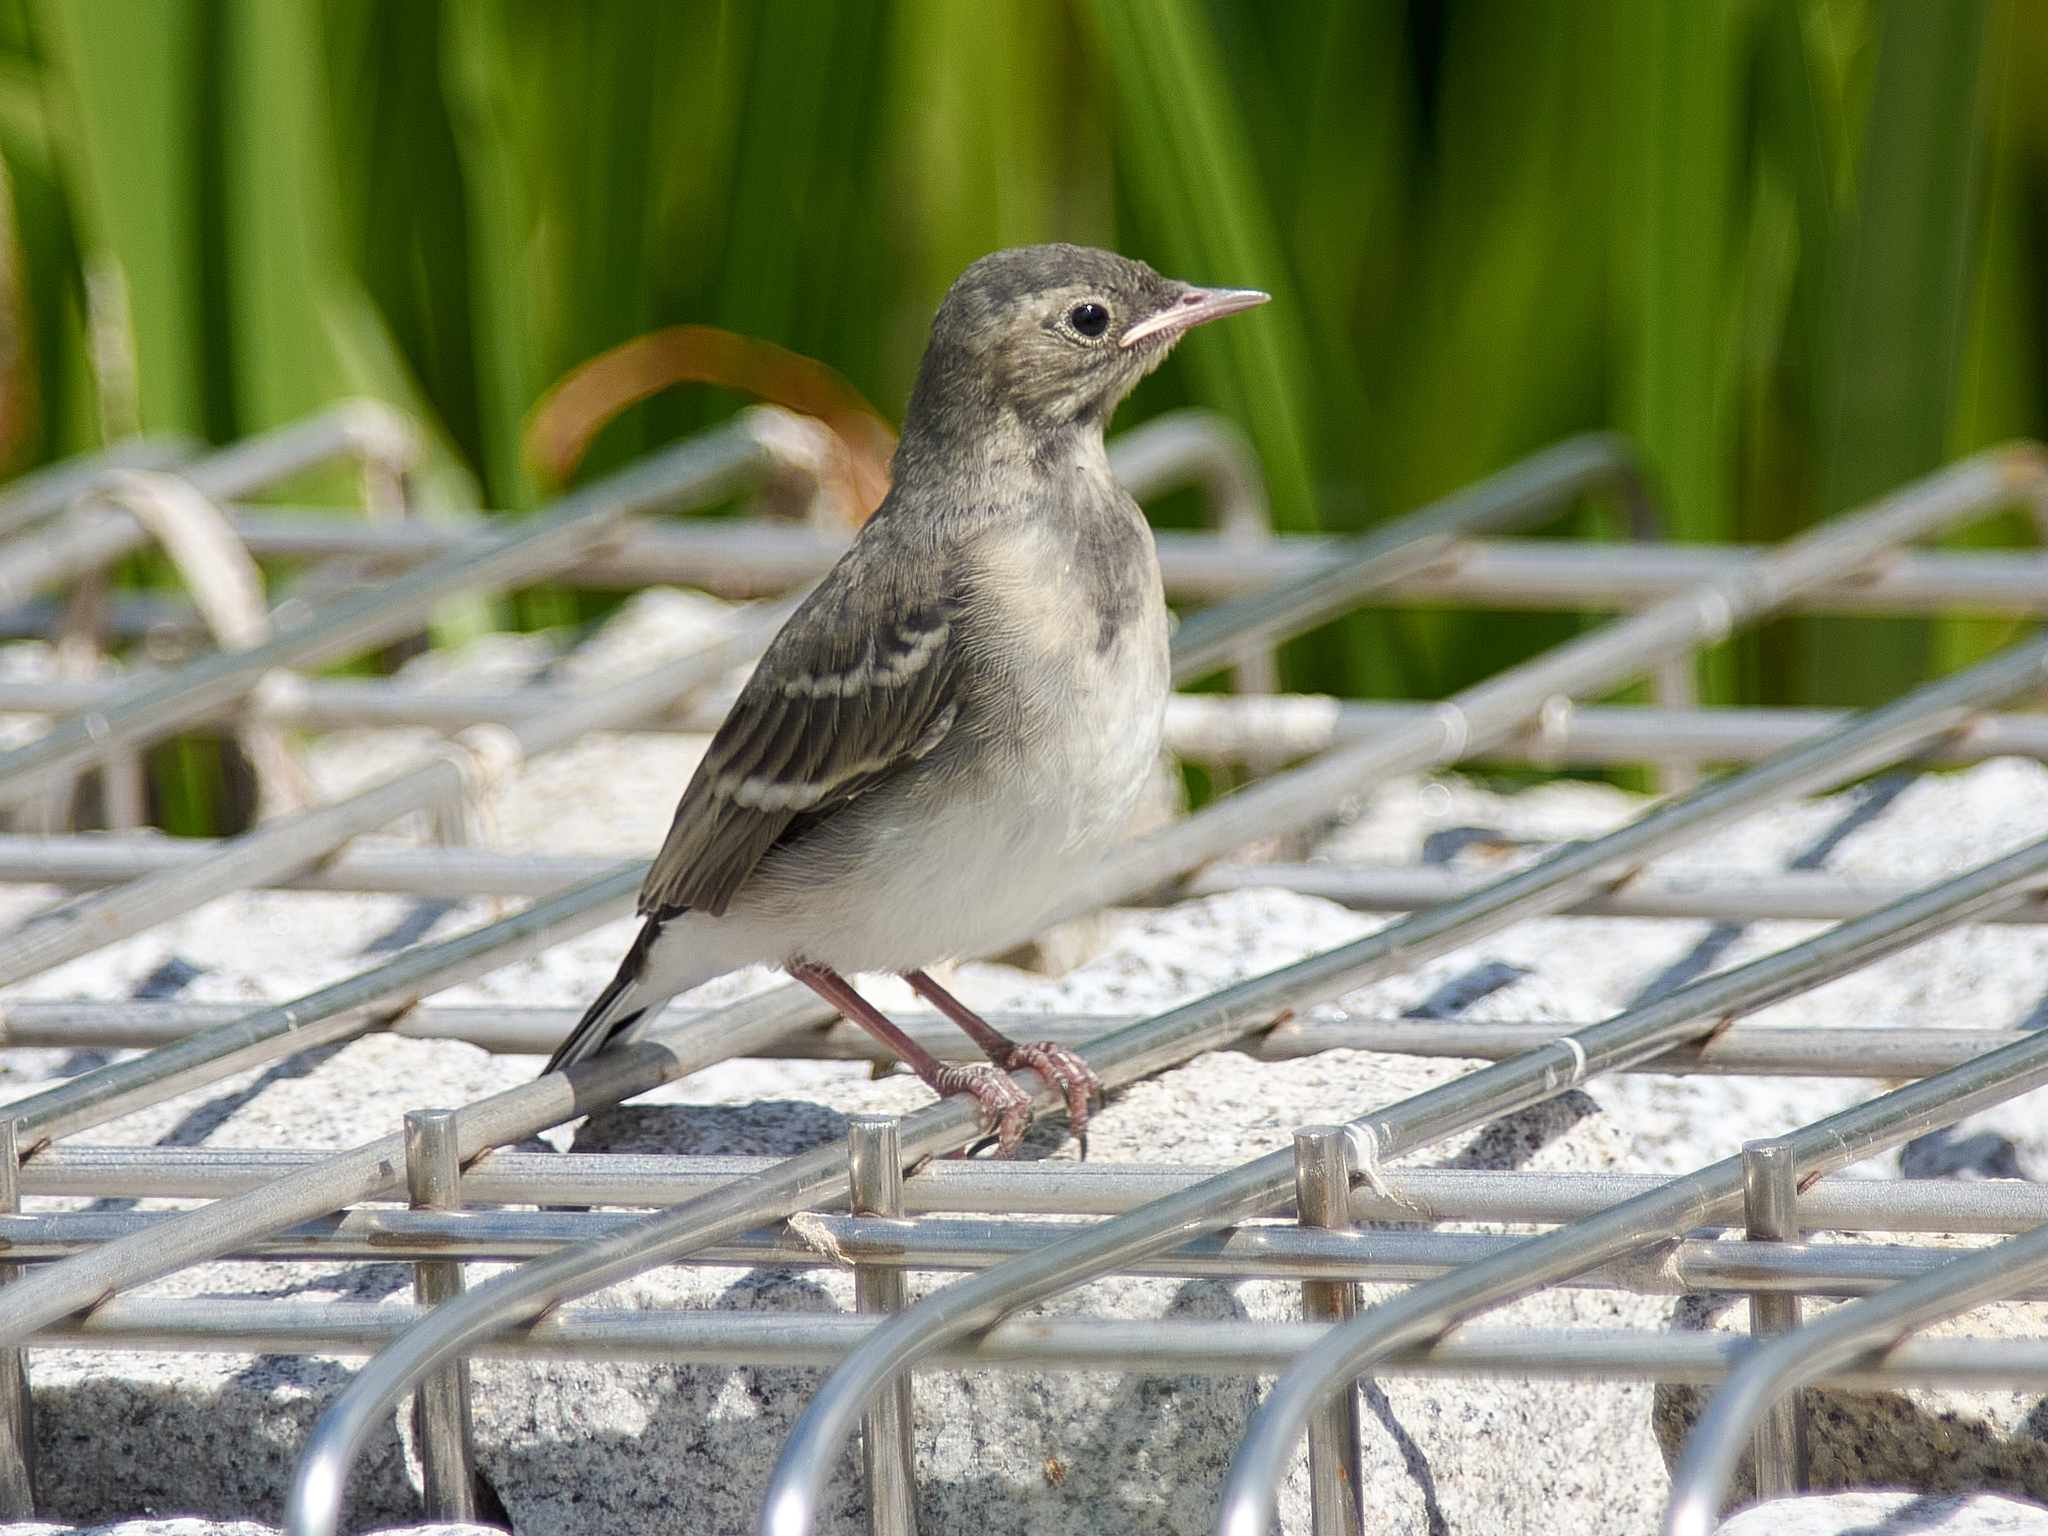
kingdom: Animalia
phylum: Chordata
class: Aves
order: Passeriformes
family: Motacillidae
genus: Motacilla
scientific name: Motacilla alba
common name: White wagtail
